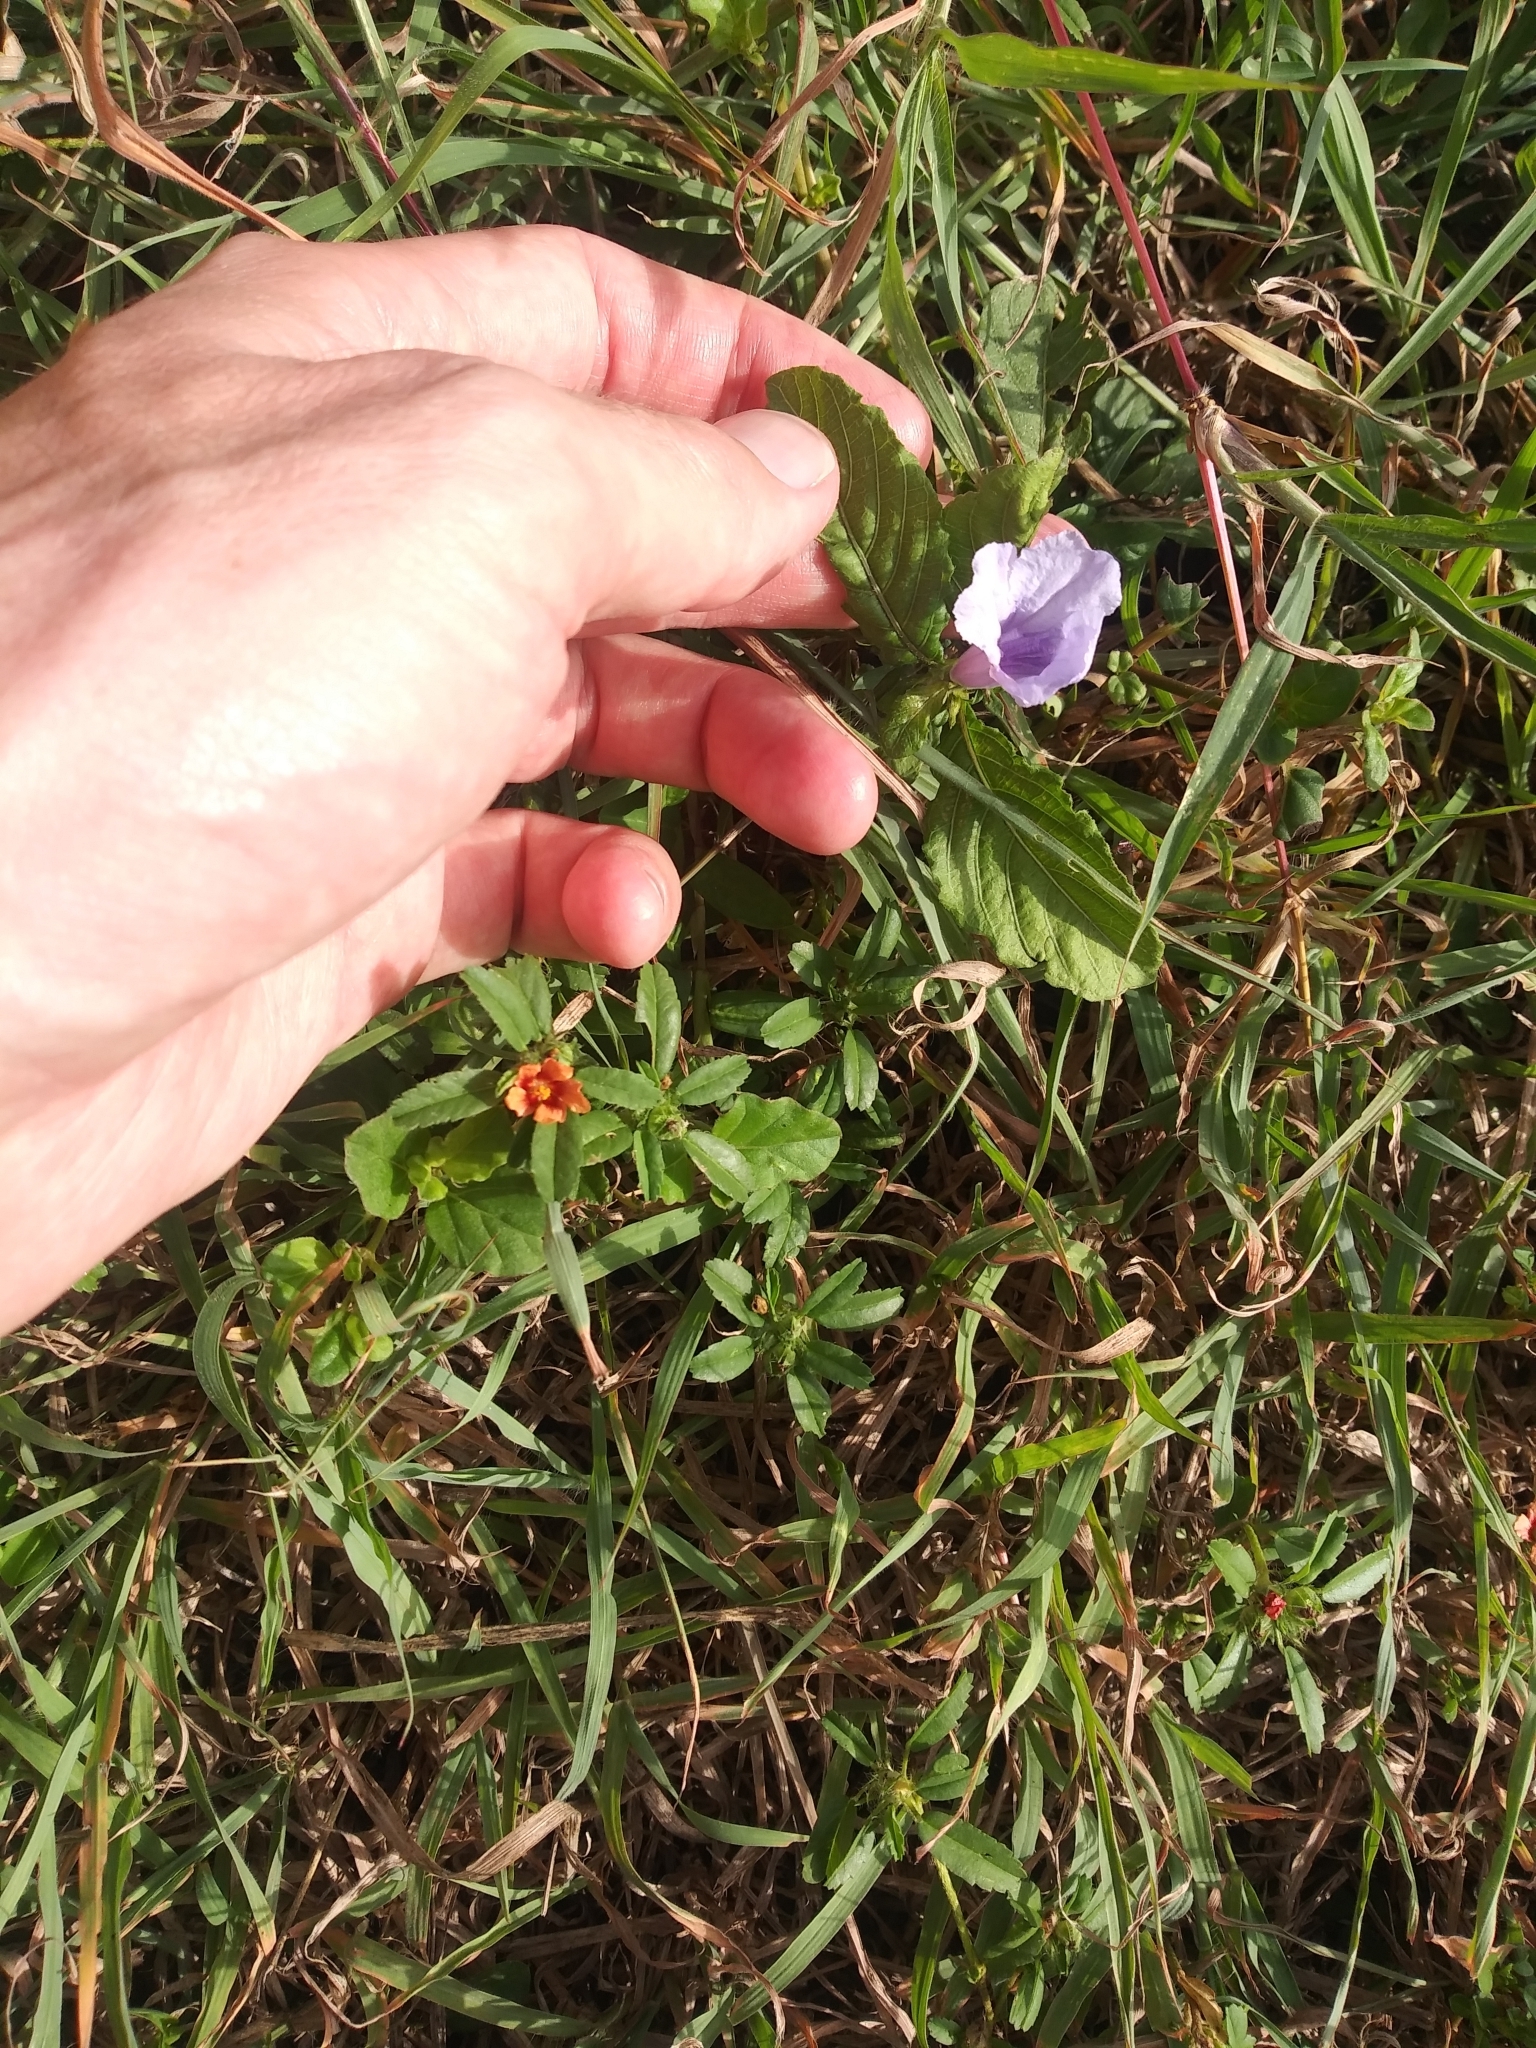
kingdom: Plantae
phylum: Tracheophyta
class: Magnoliopsida
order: Lamiales
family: Acanthaceae
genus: Ruellia
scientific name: Ruellia tuberosa
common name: Devil's bit
